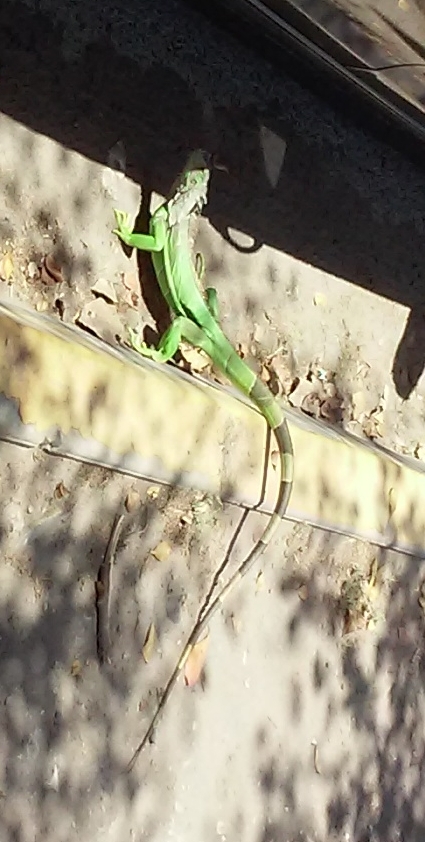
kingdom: Animalia
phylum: Chordata
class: Squamata
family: Iguanidae
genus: Iguana
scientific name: Iguana iguana
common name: Green iguana
